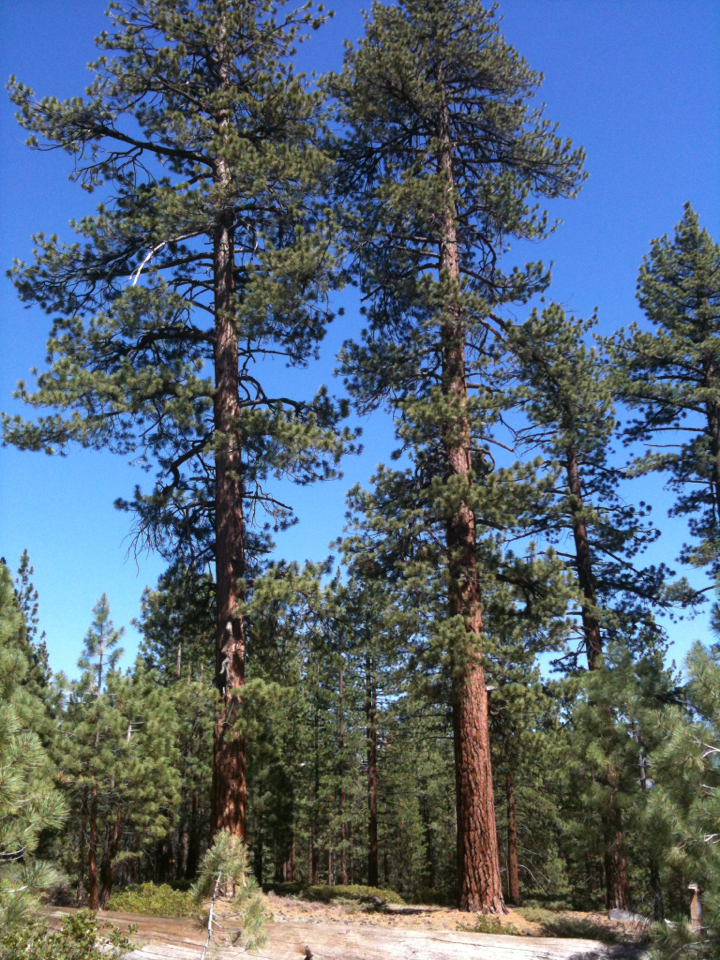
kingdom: Plantae
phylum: Tracheophyta
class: Pinopsida
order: Pinales
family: Pinaceae
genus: Pinus
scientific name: Pinus jeffreyi
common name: Jeffrey pine
